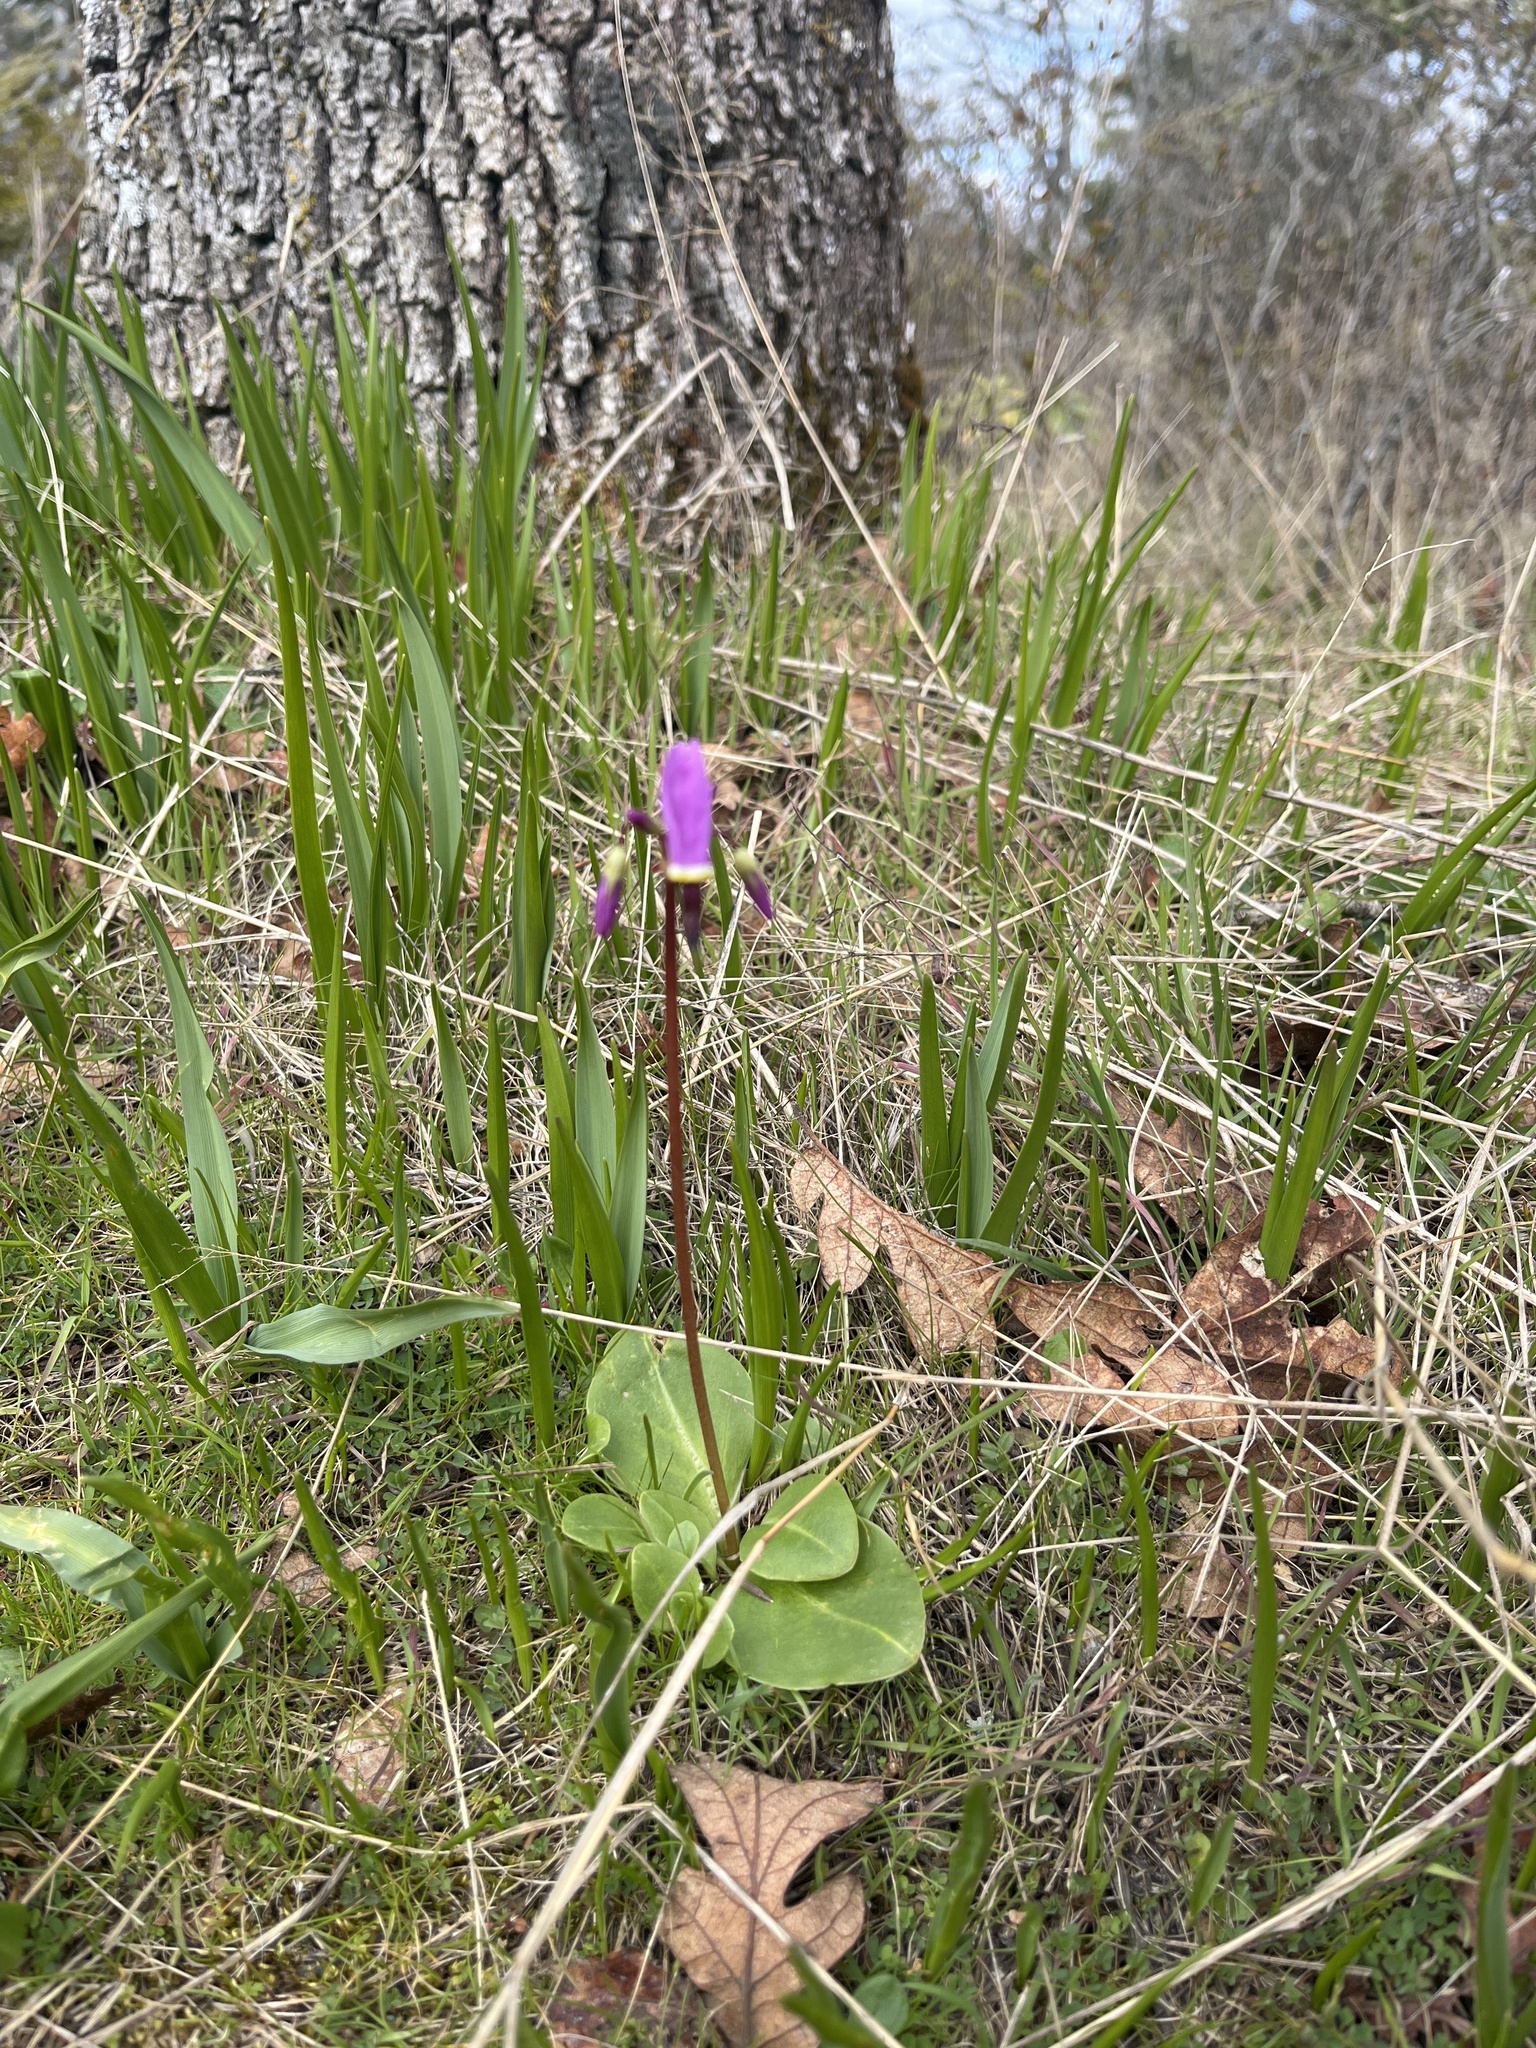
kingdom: Plantae
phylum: Tracheophyta
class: Magnoliopsida
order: Ericales
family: Primulaceae
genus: Dodecatheon
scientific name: Dodecatheon hendersonii
